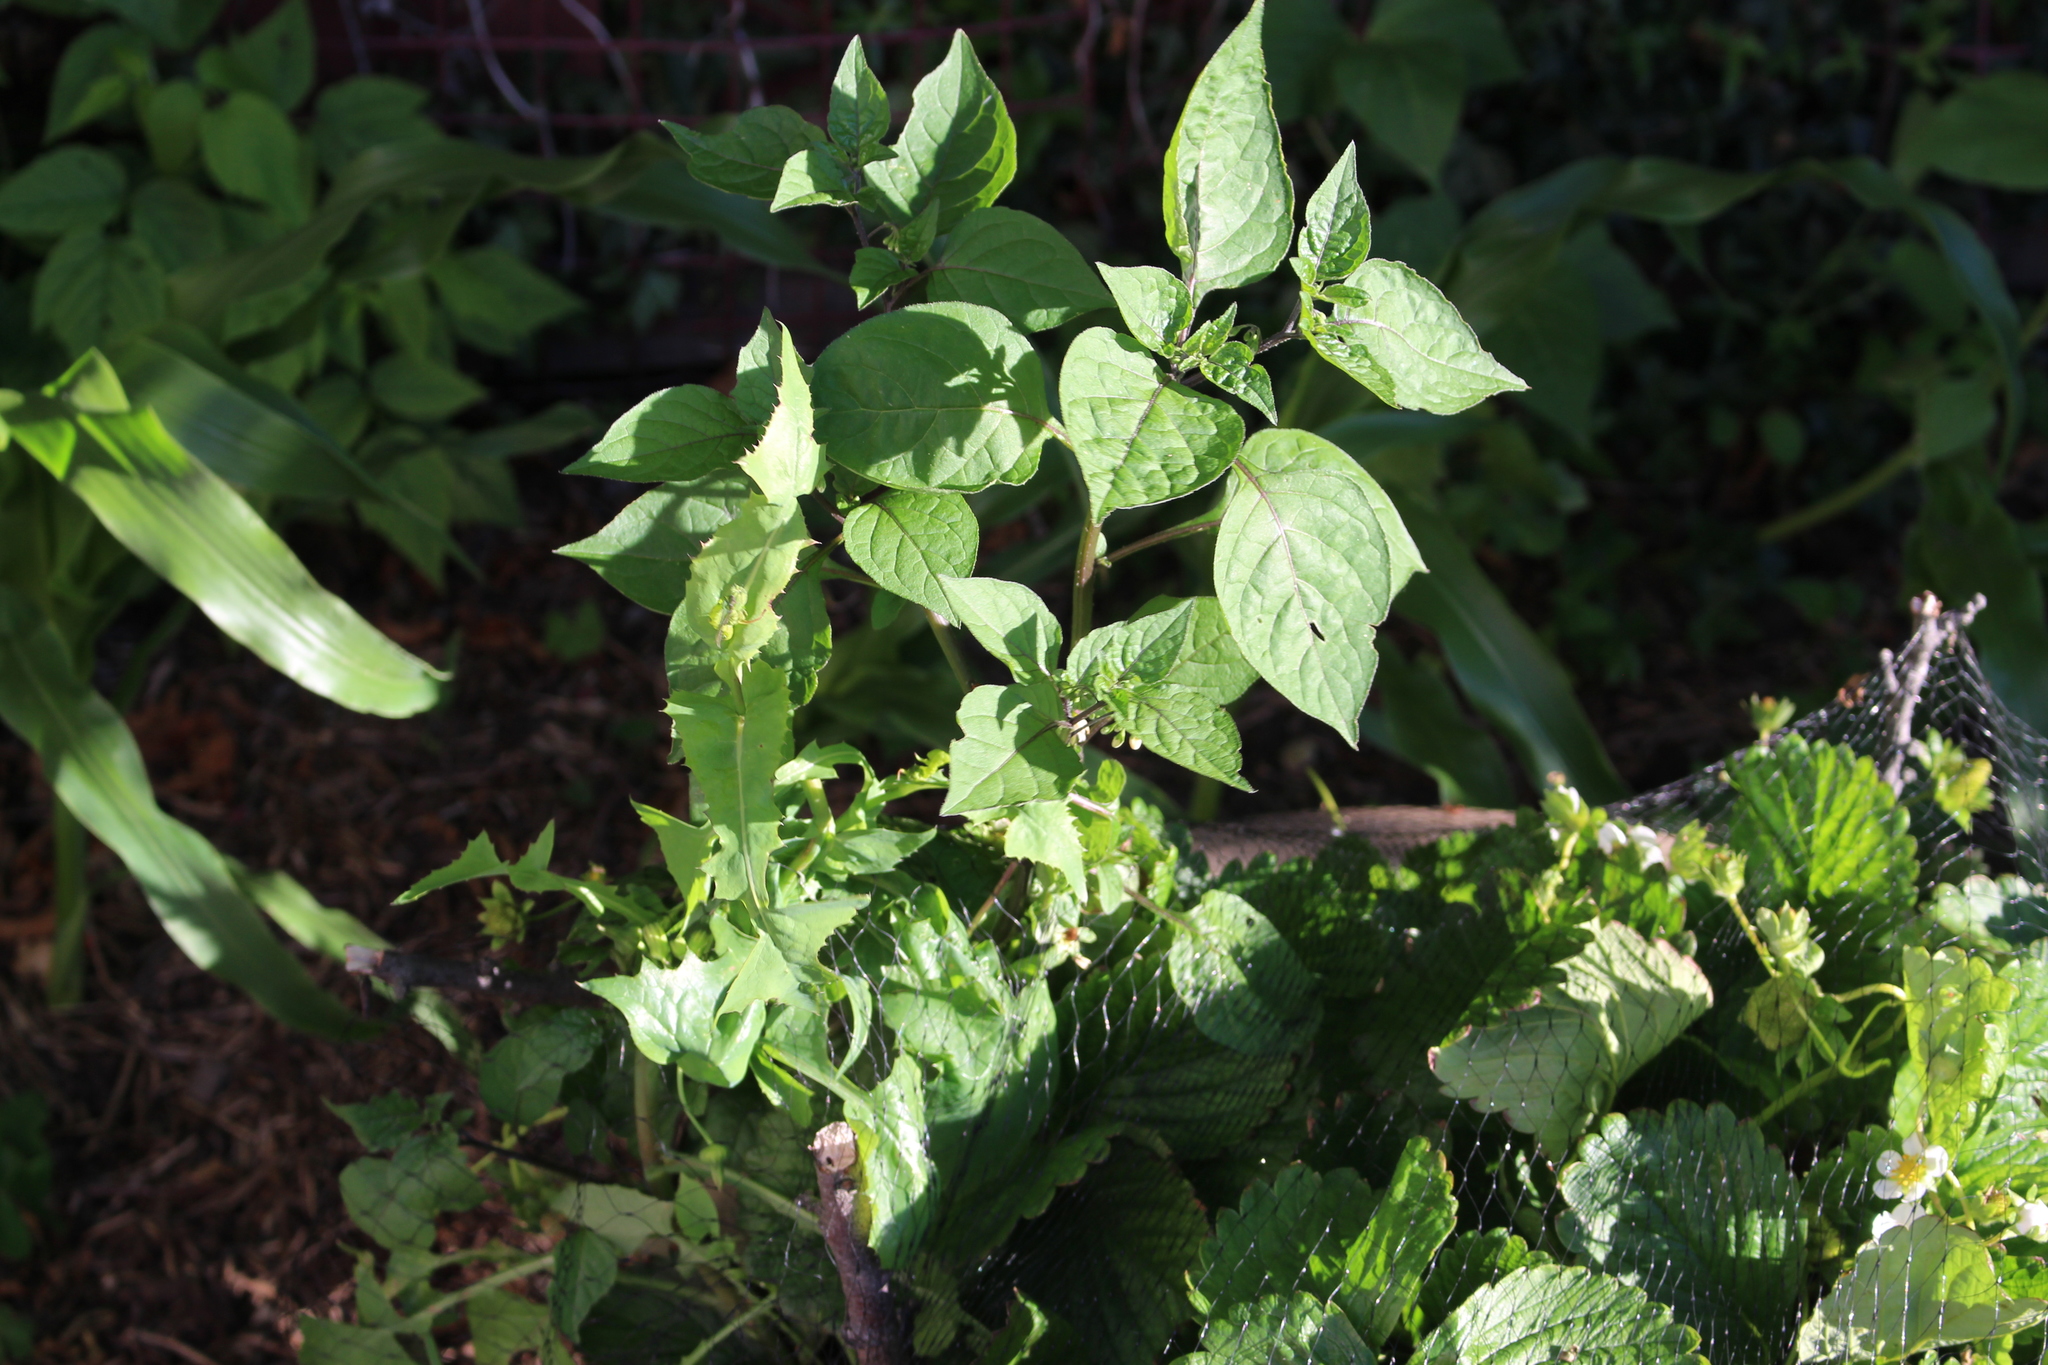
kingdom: Plantae
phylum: Tracheophyta
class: Magnoliopsida
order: Solanales
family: Solanaceae
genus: Solanum
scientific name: Solanum nigrum
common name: Black nightshade
